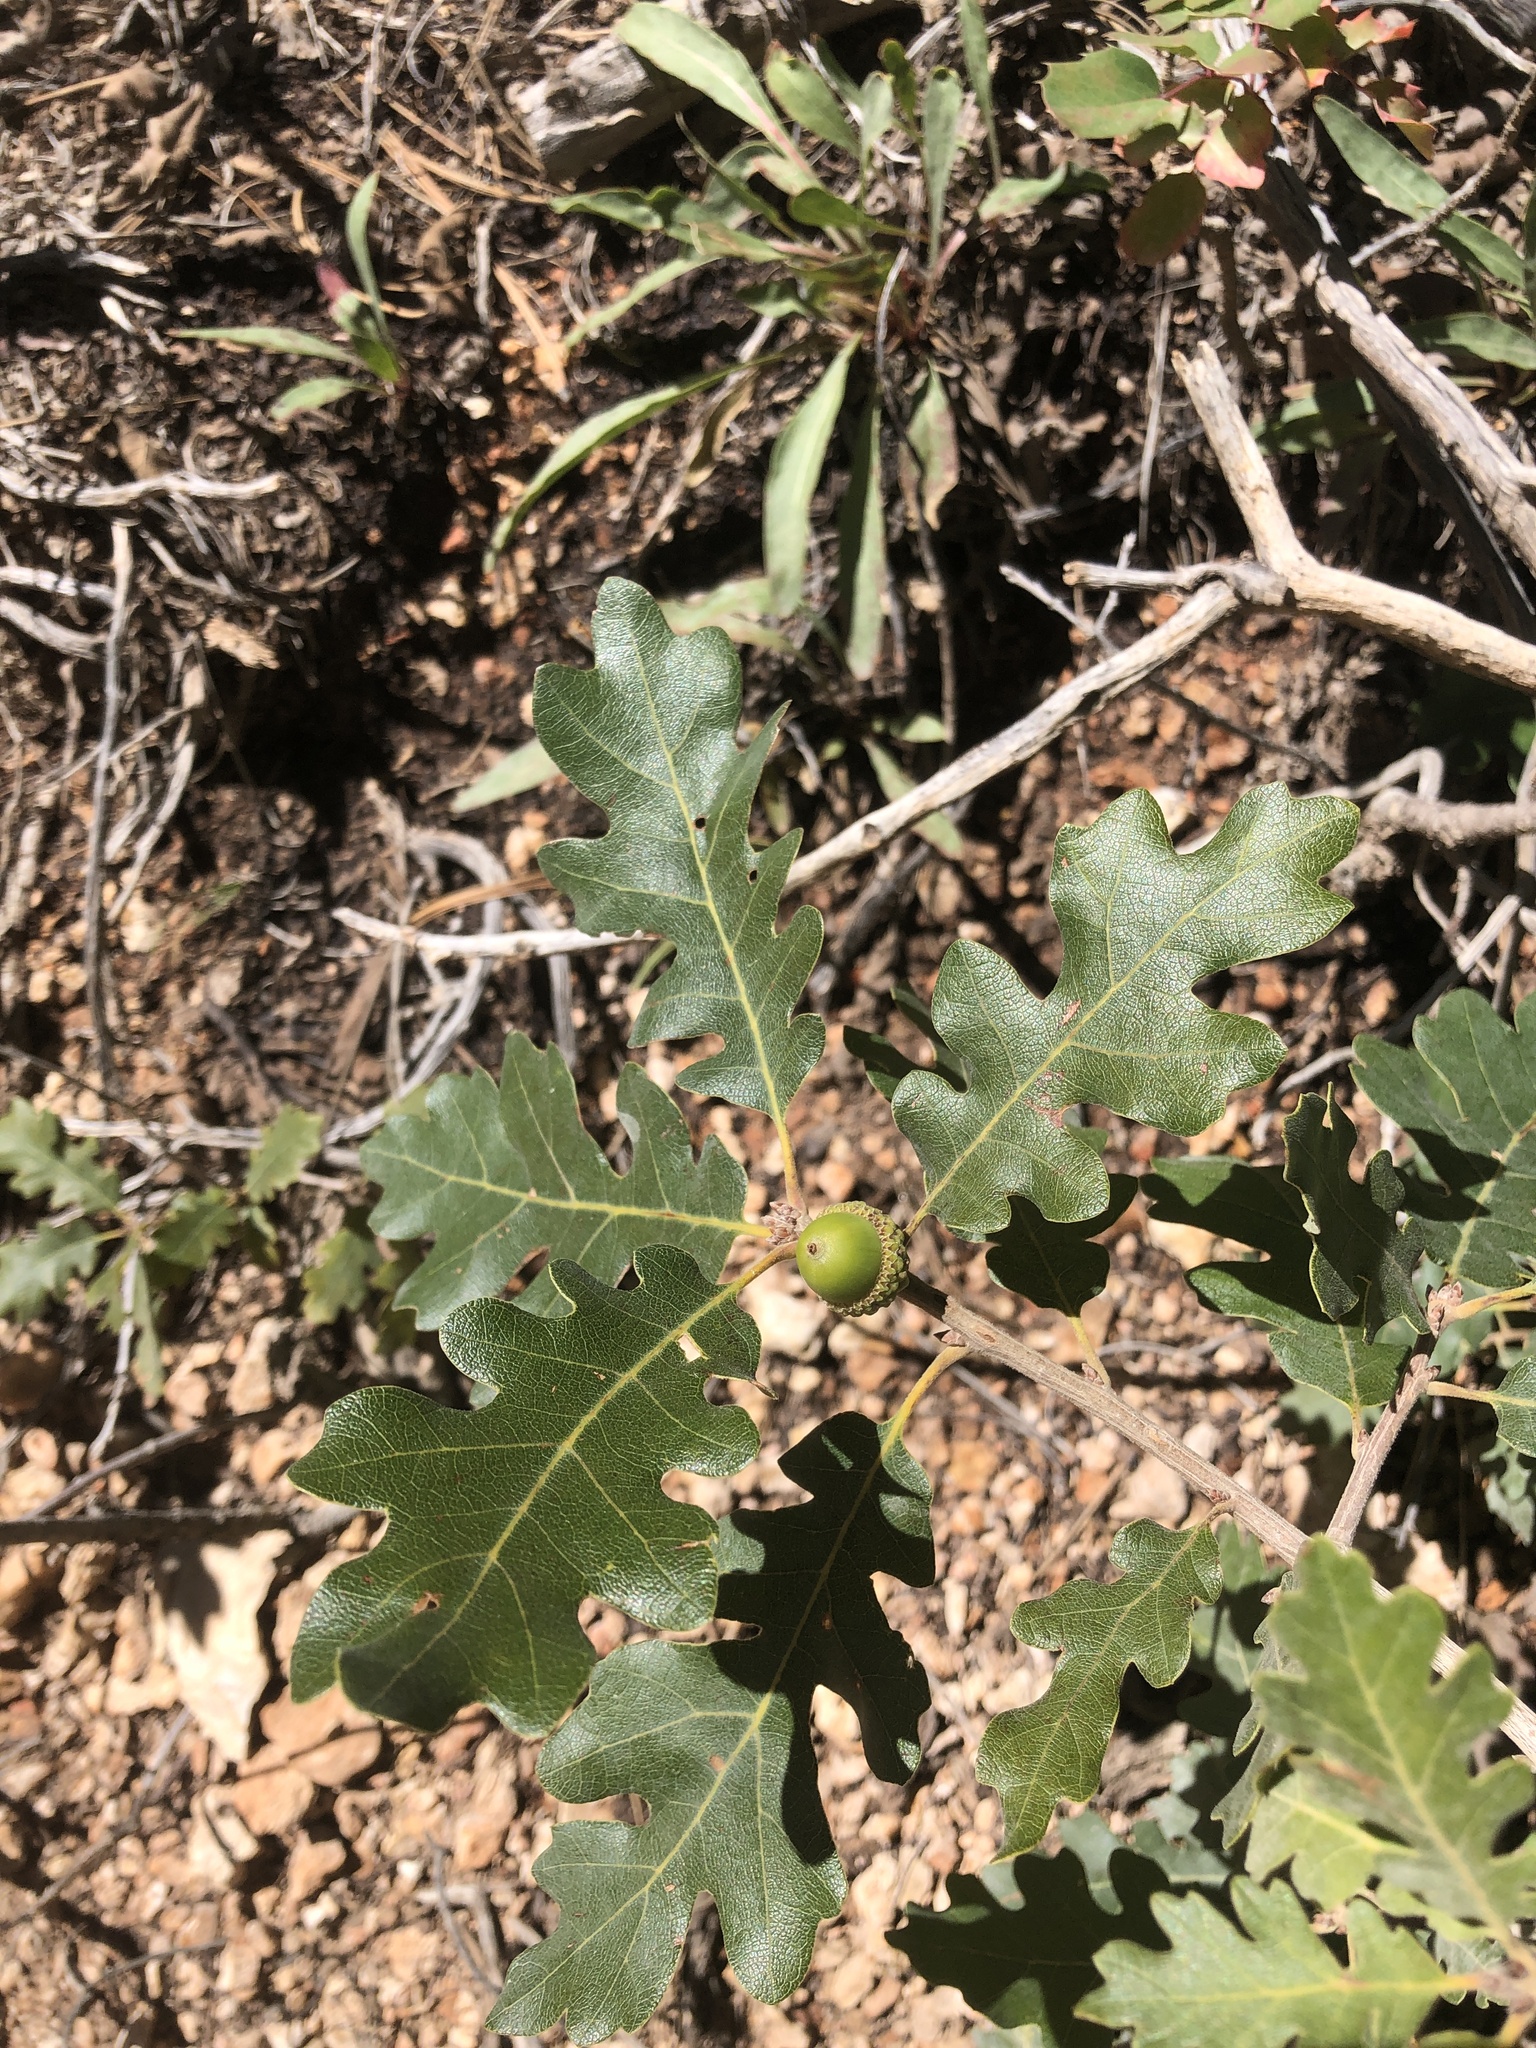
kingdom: Plantae
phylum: Tracheophyta
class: Magnoliopsida
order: Fagales
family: Fagaceae
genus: Quercus
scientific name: Quercus gambelii
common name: Gambel oak
